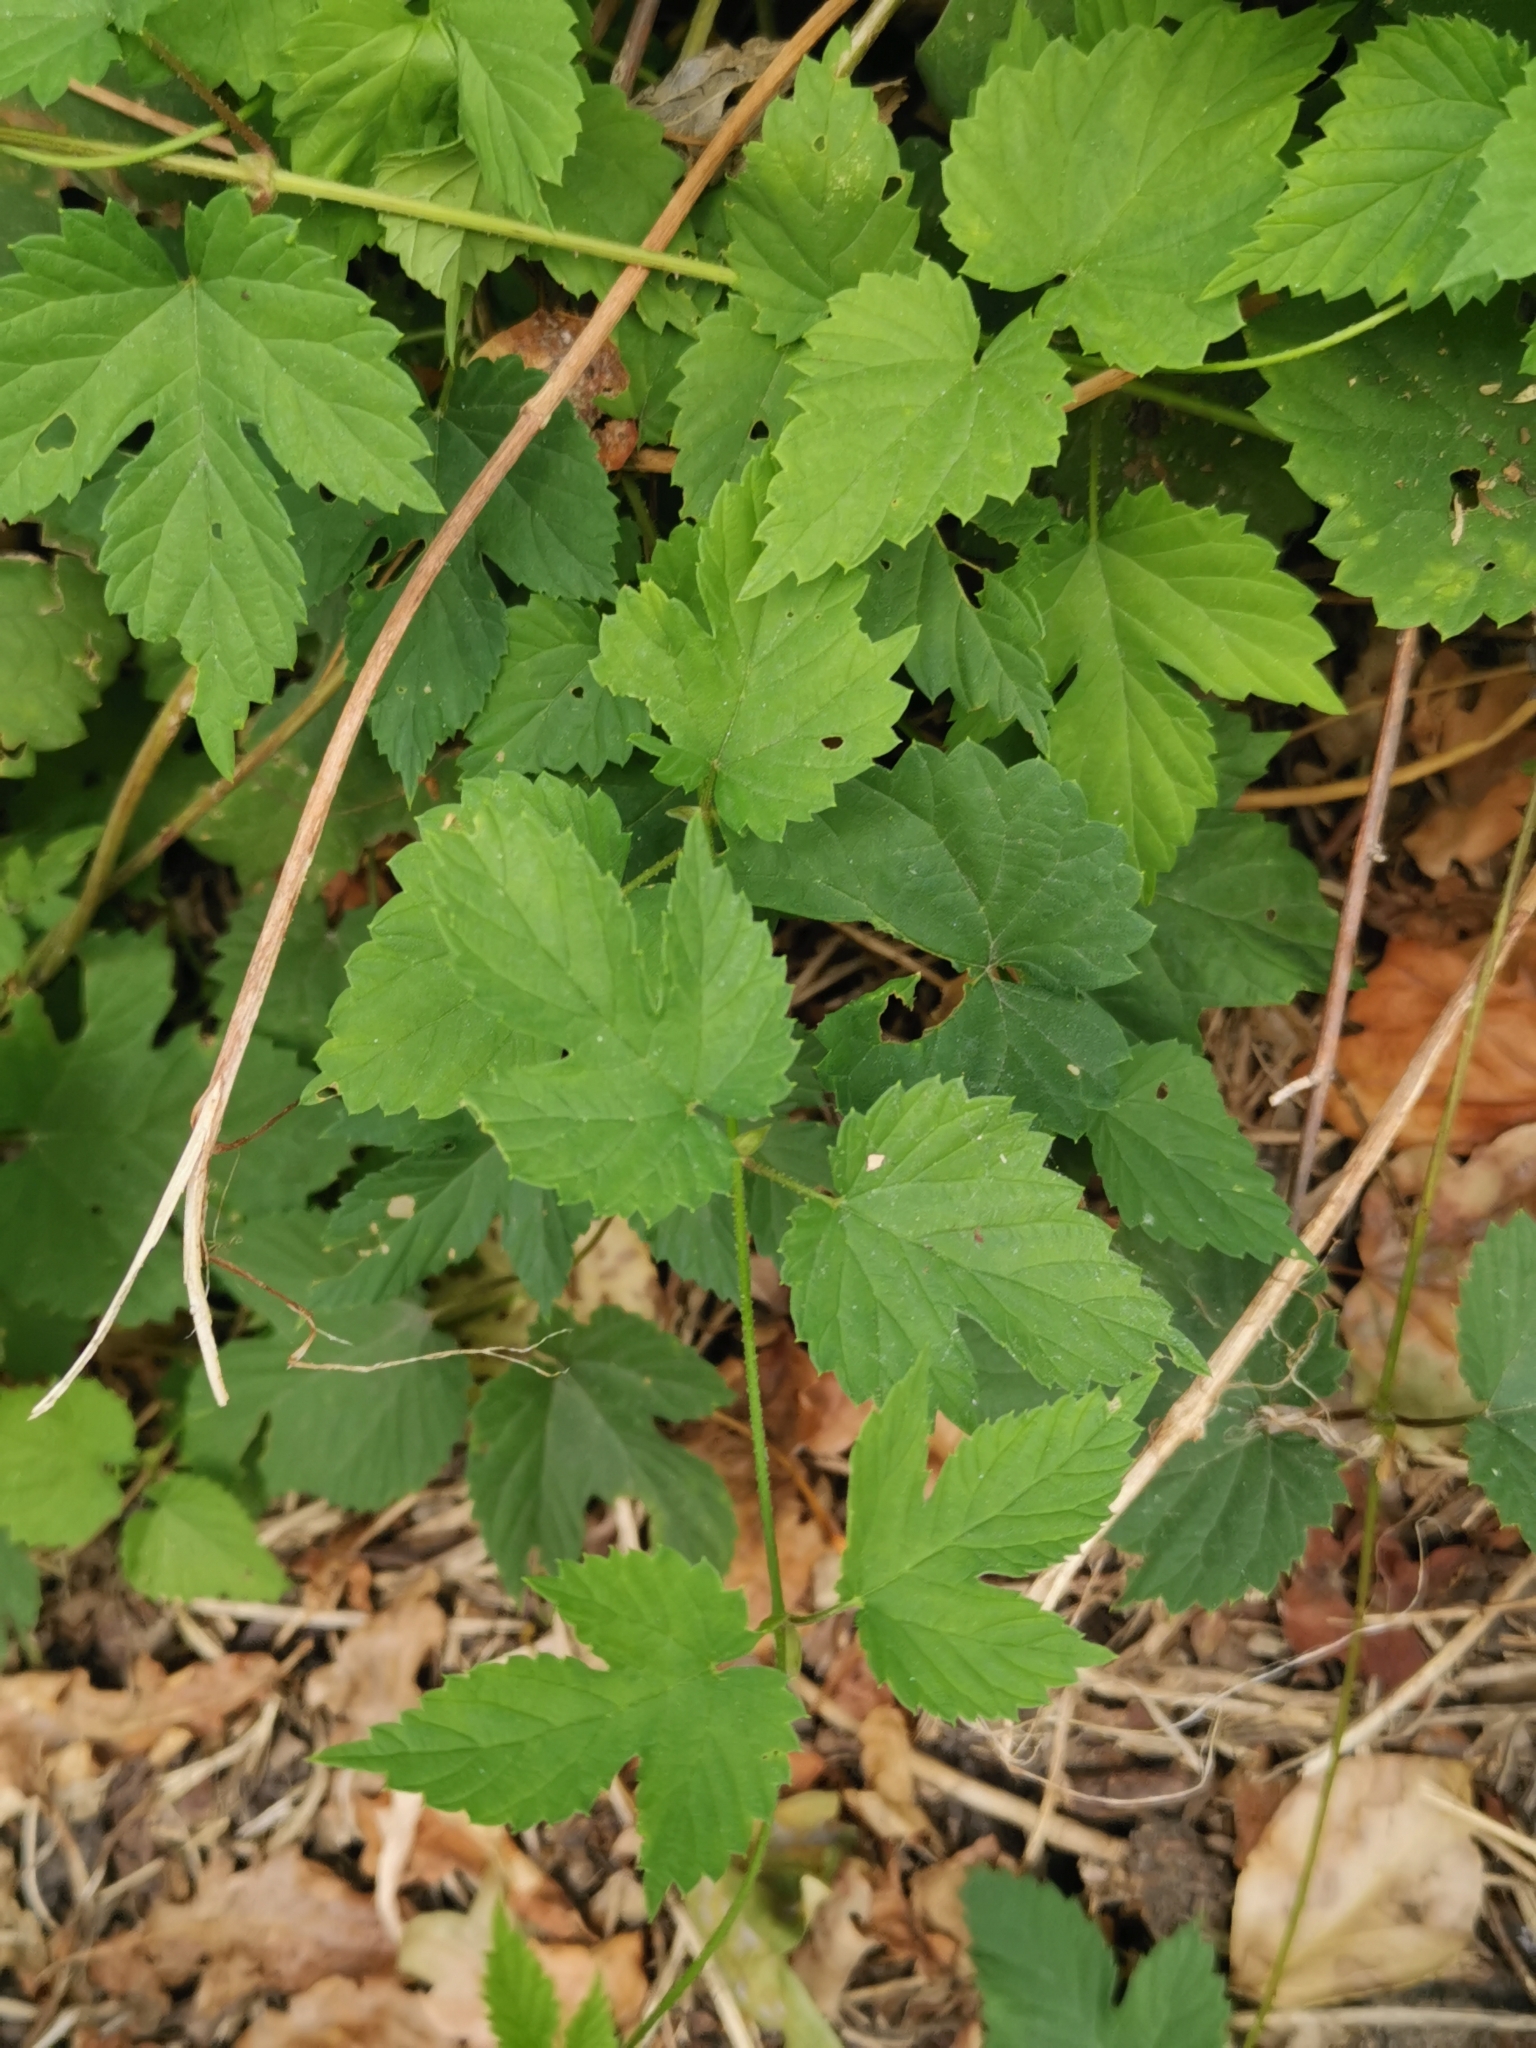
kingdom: Plantae
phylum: Tracheophyta
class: Magnoliopsida
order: Rosales
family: Cannabaceae
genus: Humulus
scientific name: Humulus lupulus
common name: Hop
